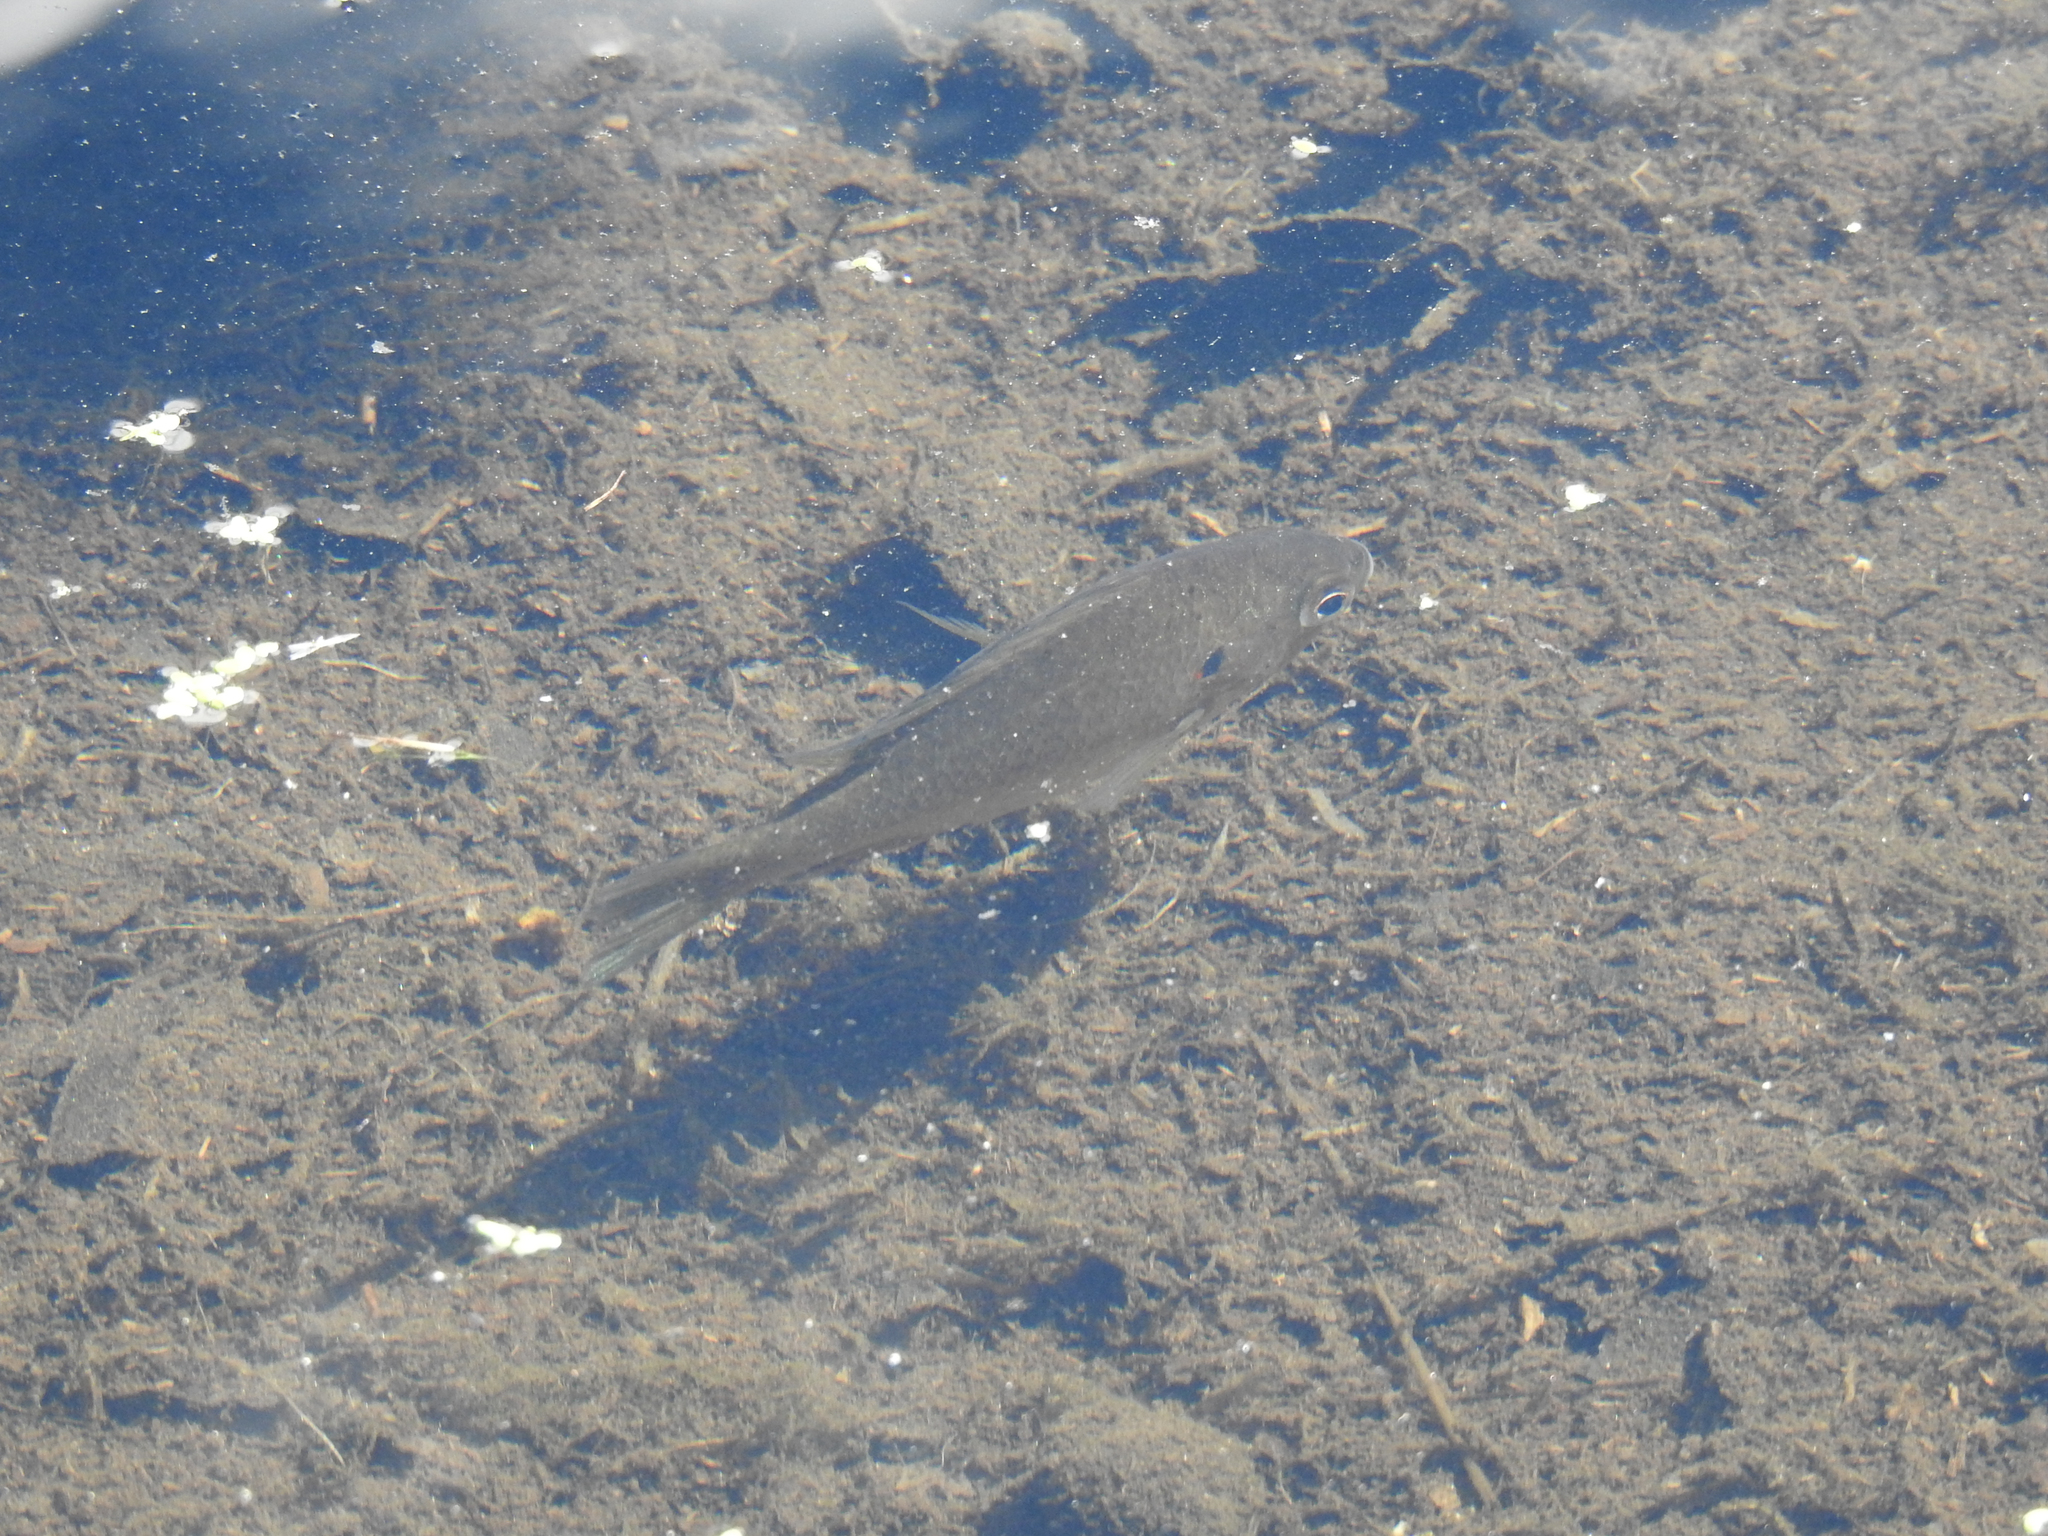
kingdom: Animalia
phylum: Chordata
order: Perciformes
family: Centrarchidae
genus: Lepomis
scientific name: Lepomis gibbosus
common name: Pumpkinseed
